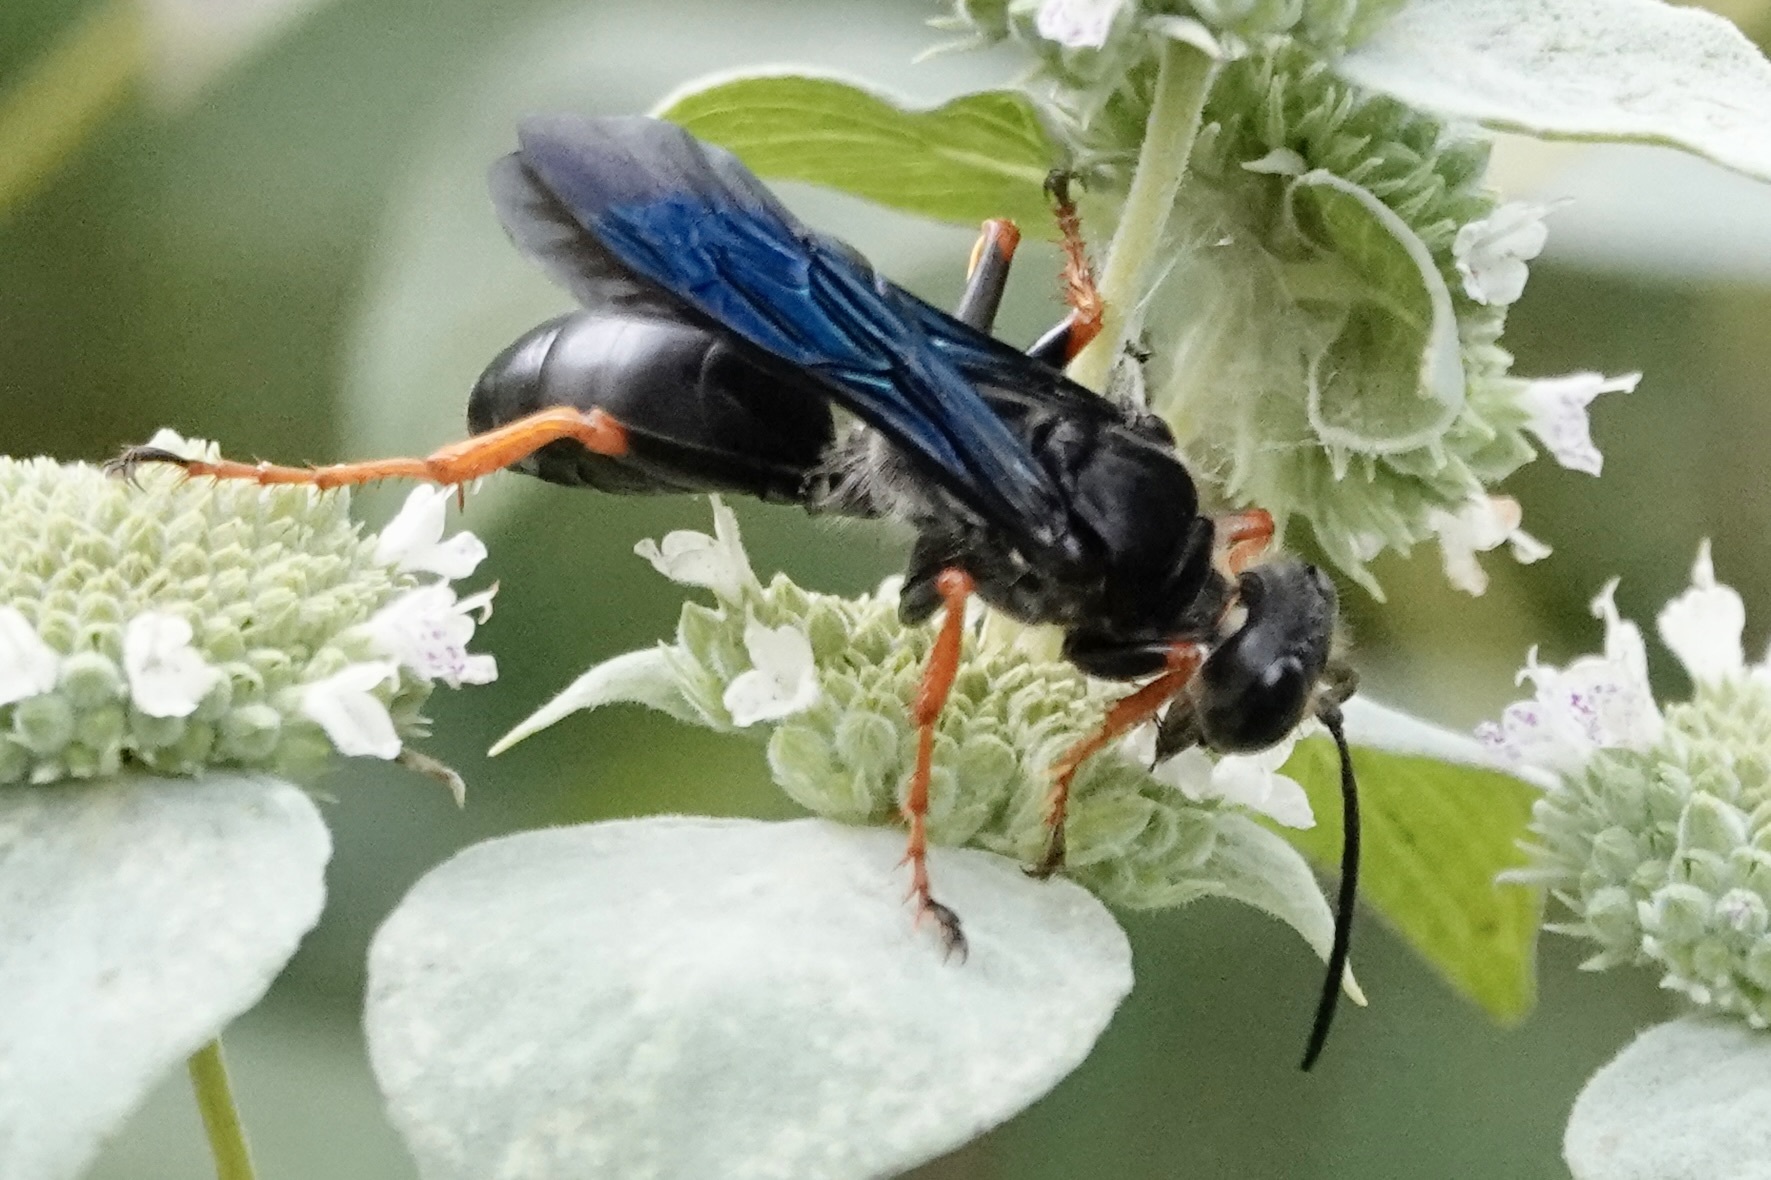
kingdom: Animalia
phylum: Arthropoda
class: Insecta
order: Hymenoptera
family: Sphecidae
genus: Sphex
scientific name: Sphex nudus
